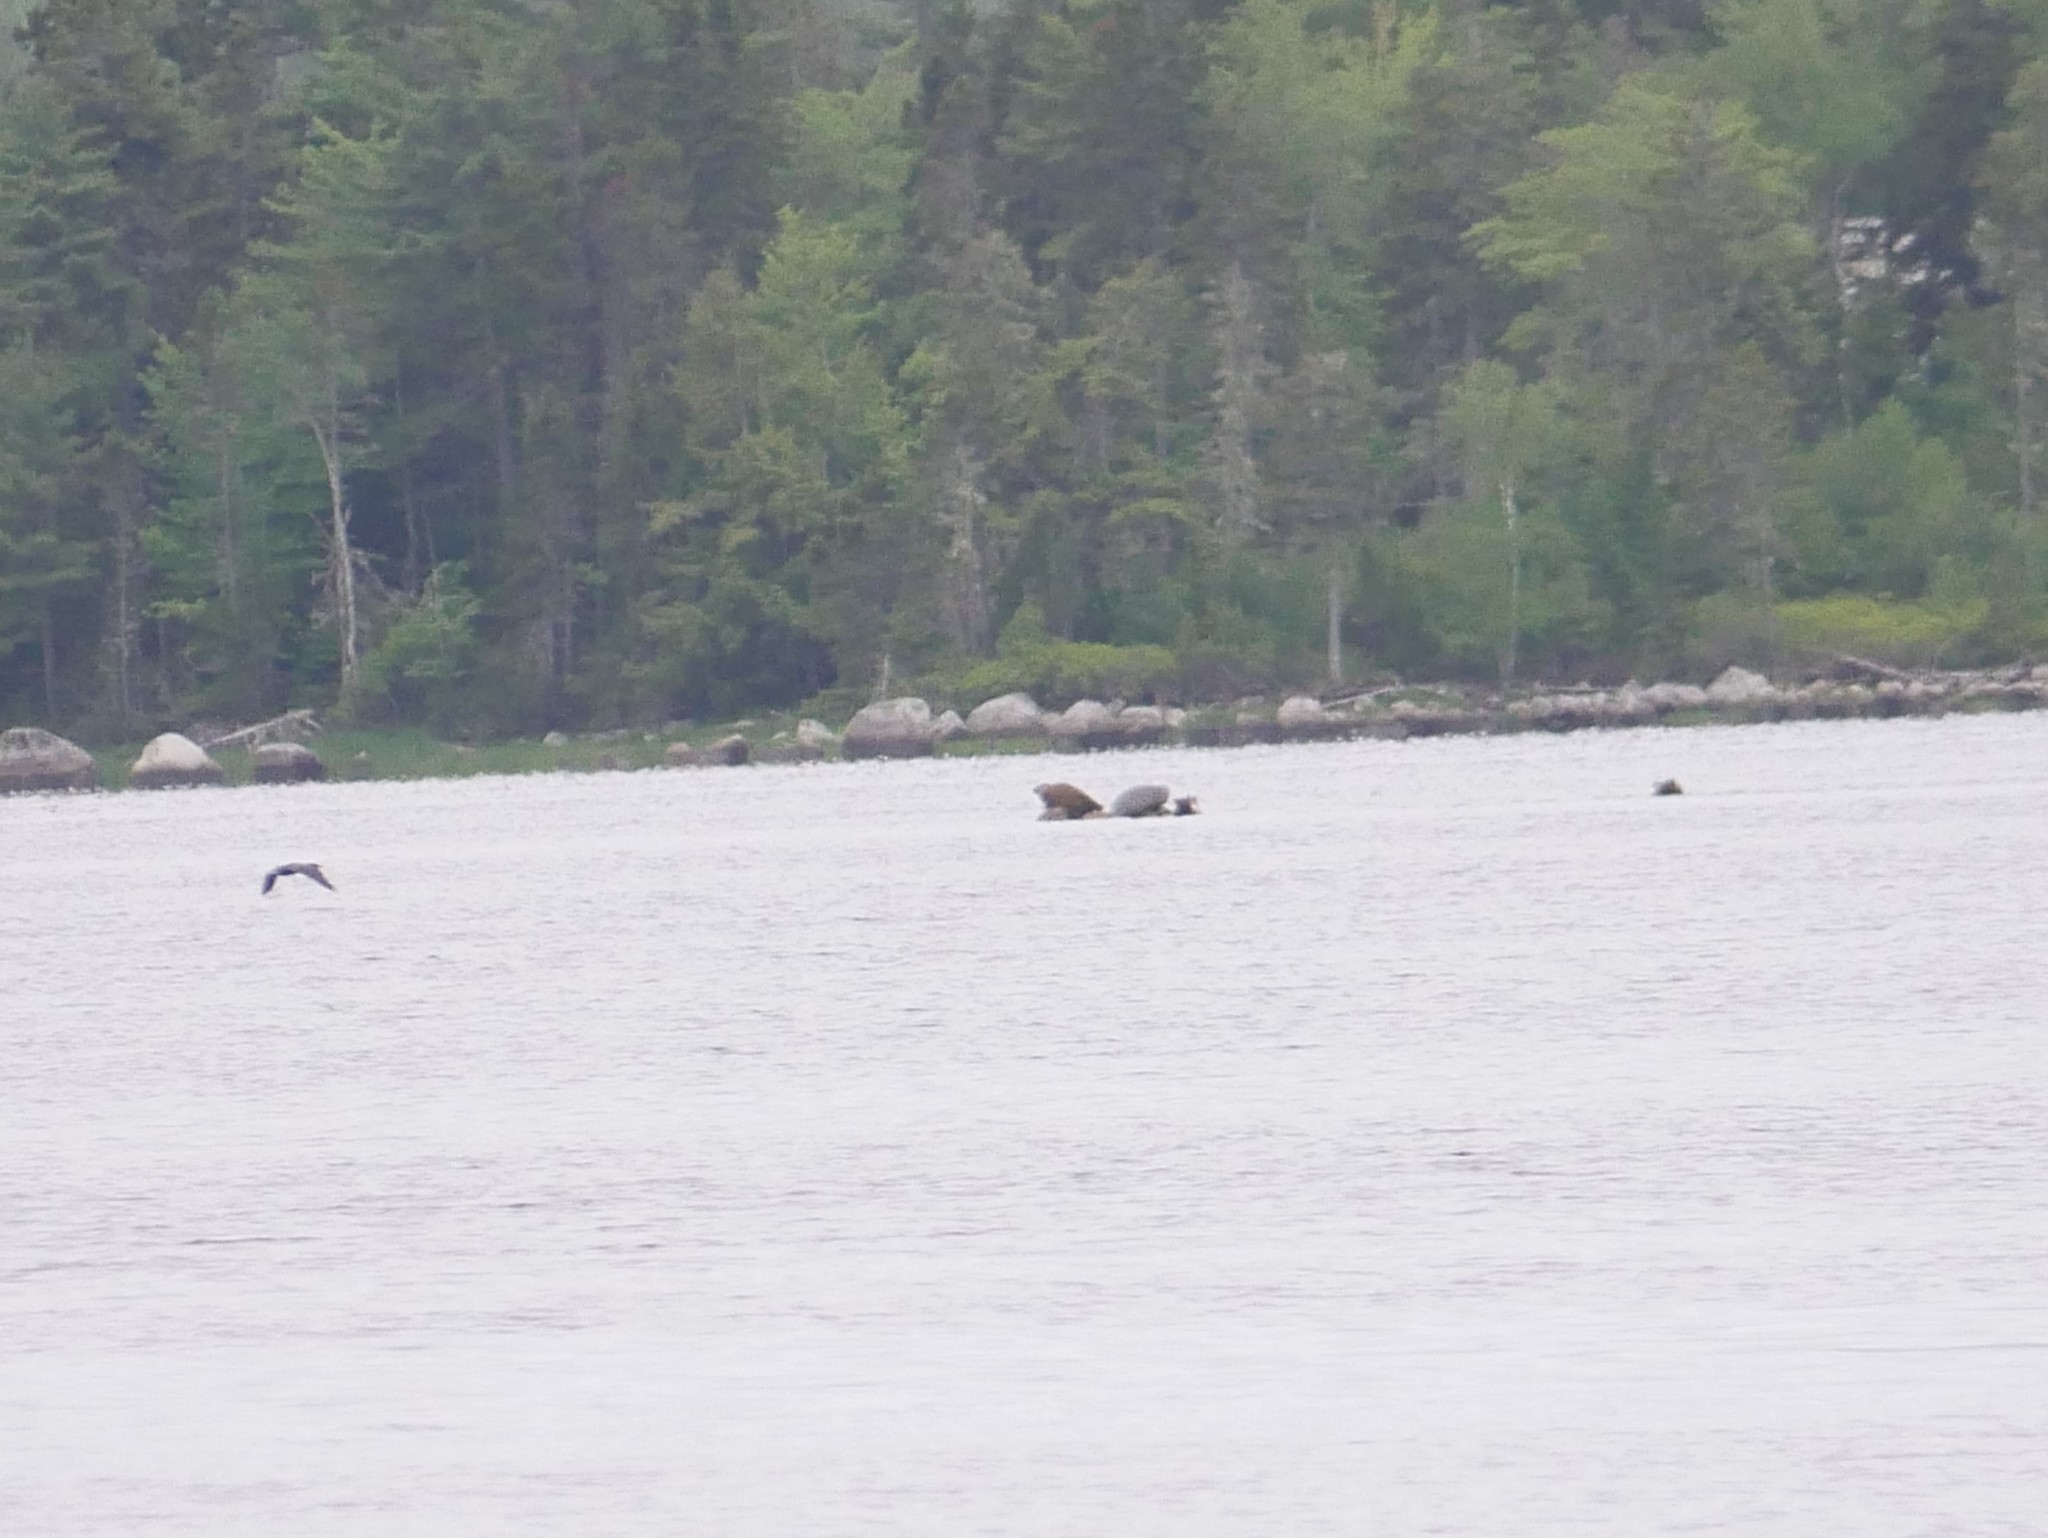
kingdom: Animalia
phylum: Chordata
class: Mammalia
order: Carnivora
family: Phocidae
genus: Phoca
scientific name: Phoca vitulina
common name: Harbor seal
